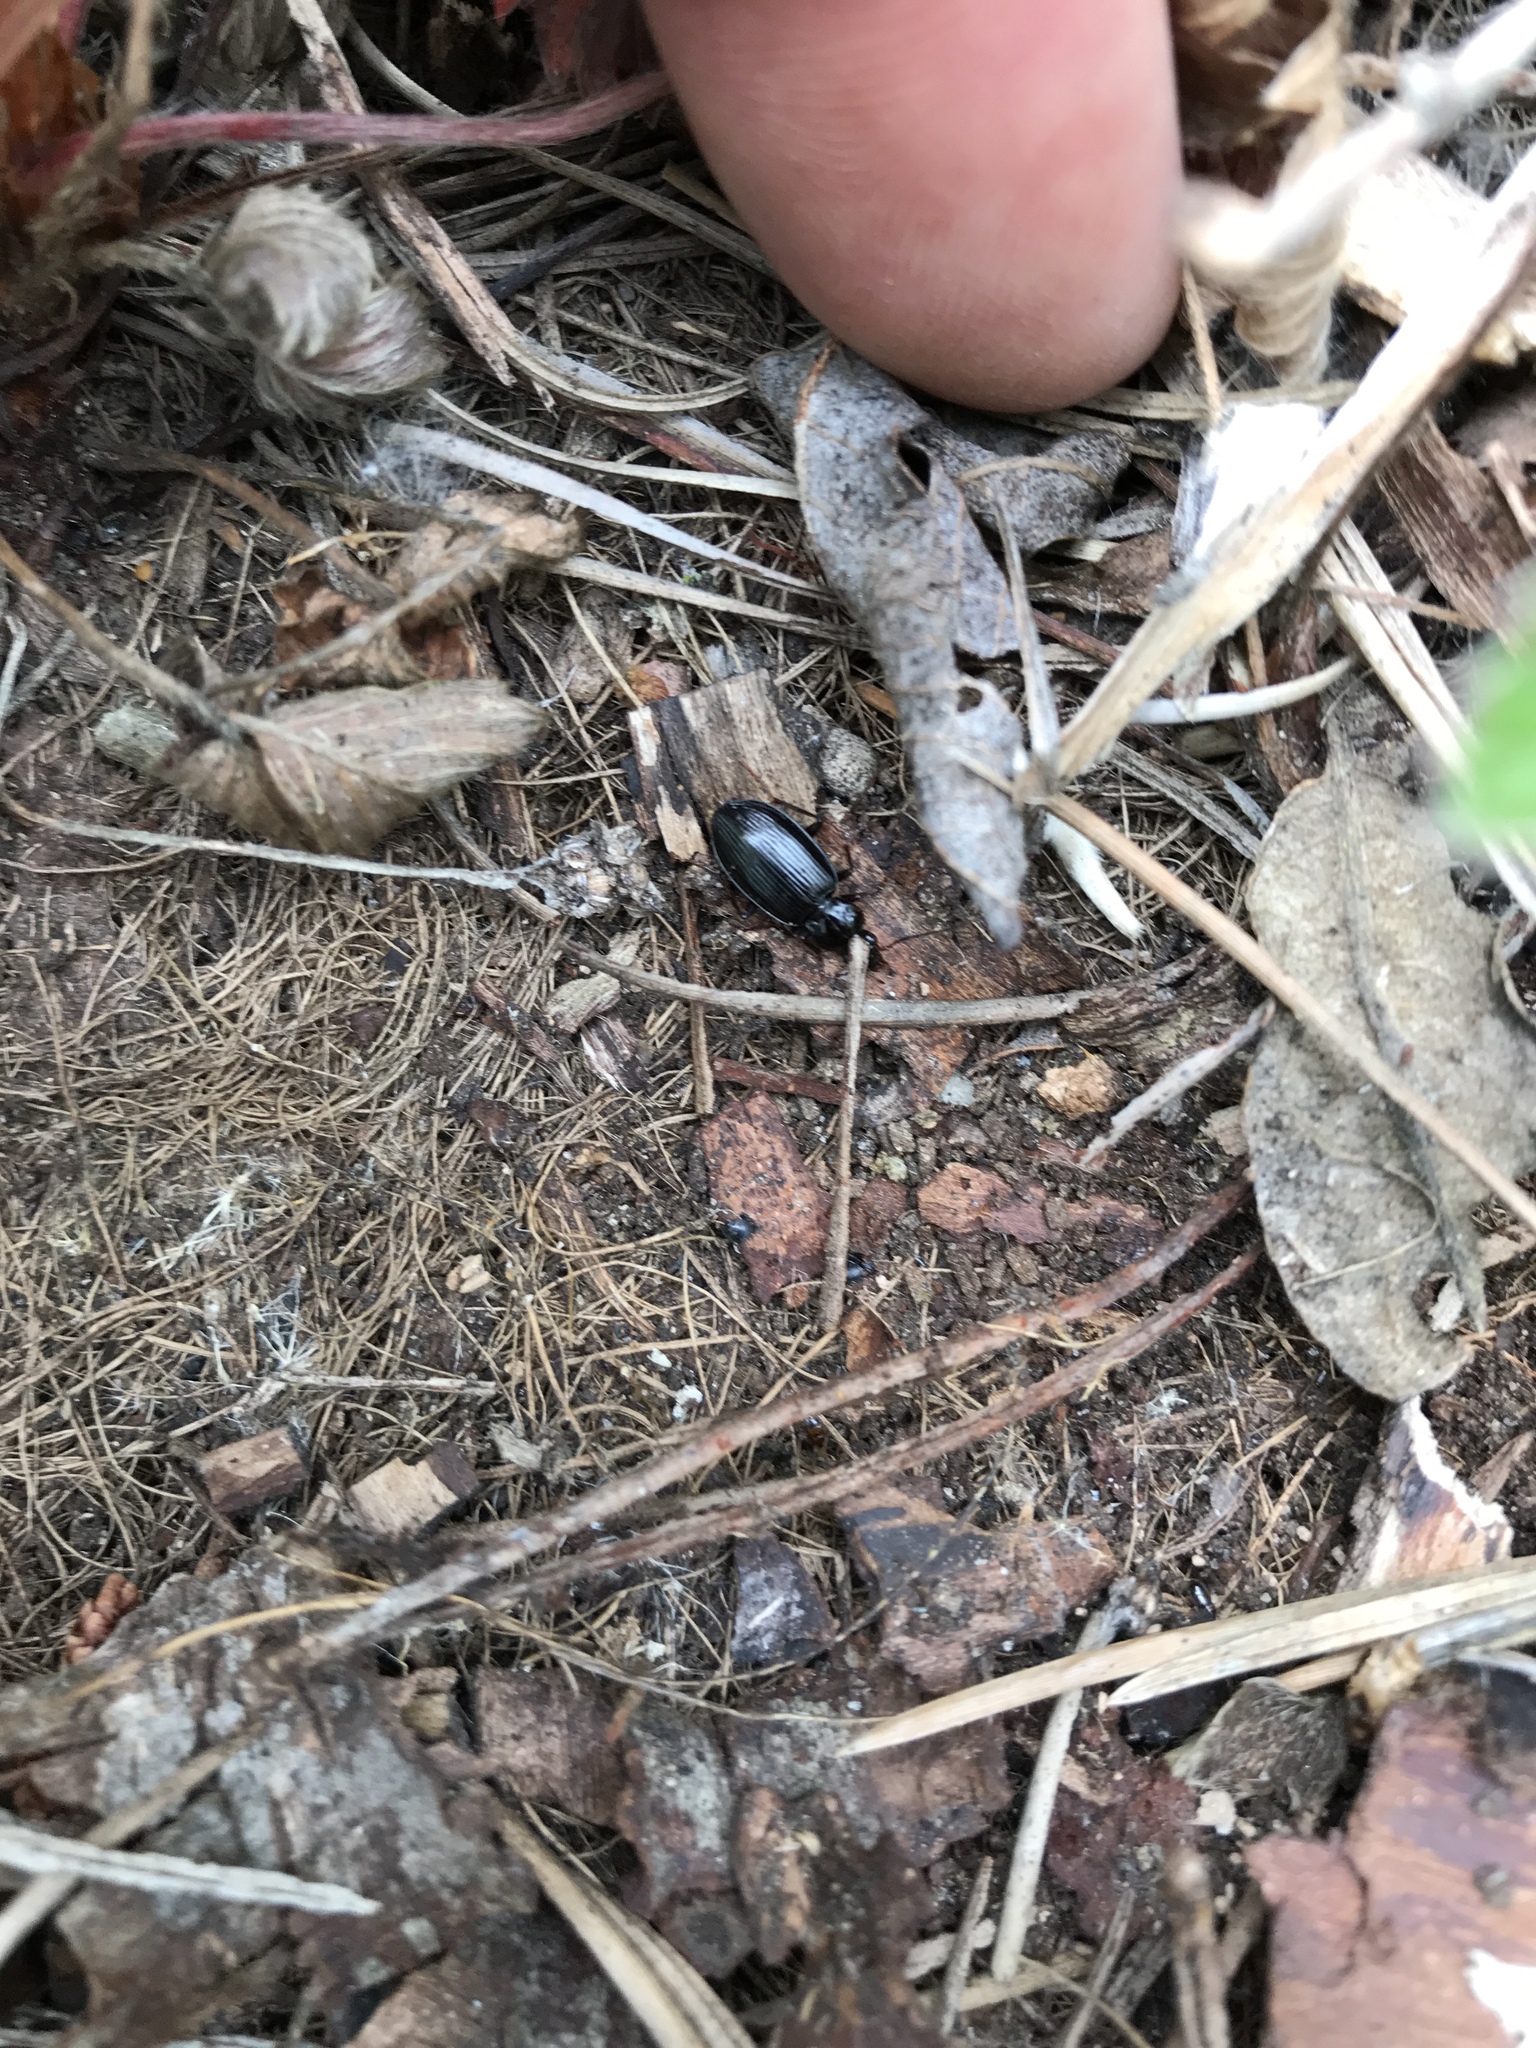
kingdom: Animalia
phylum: Arthropoda
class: Insecta
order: Coleoptera
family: Carabidae
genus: Platynus
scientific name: Platynus brunneomarginatus
